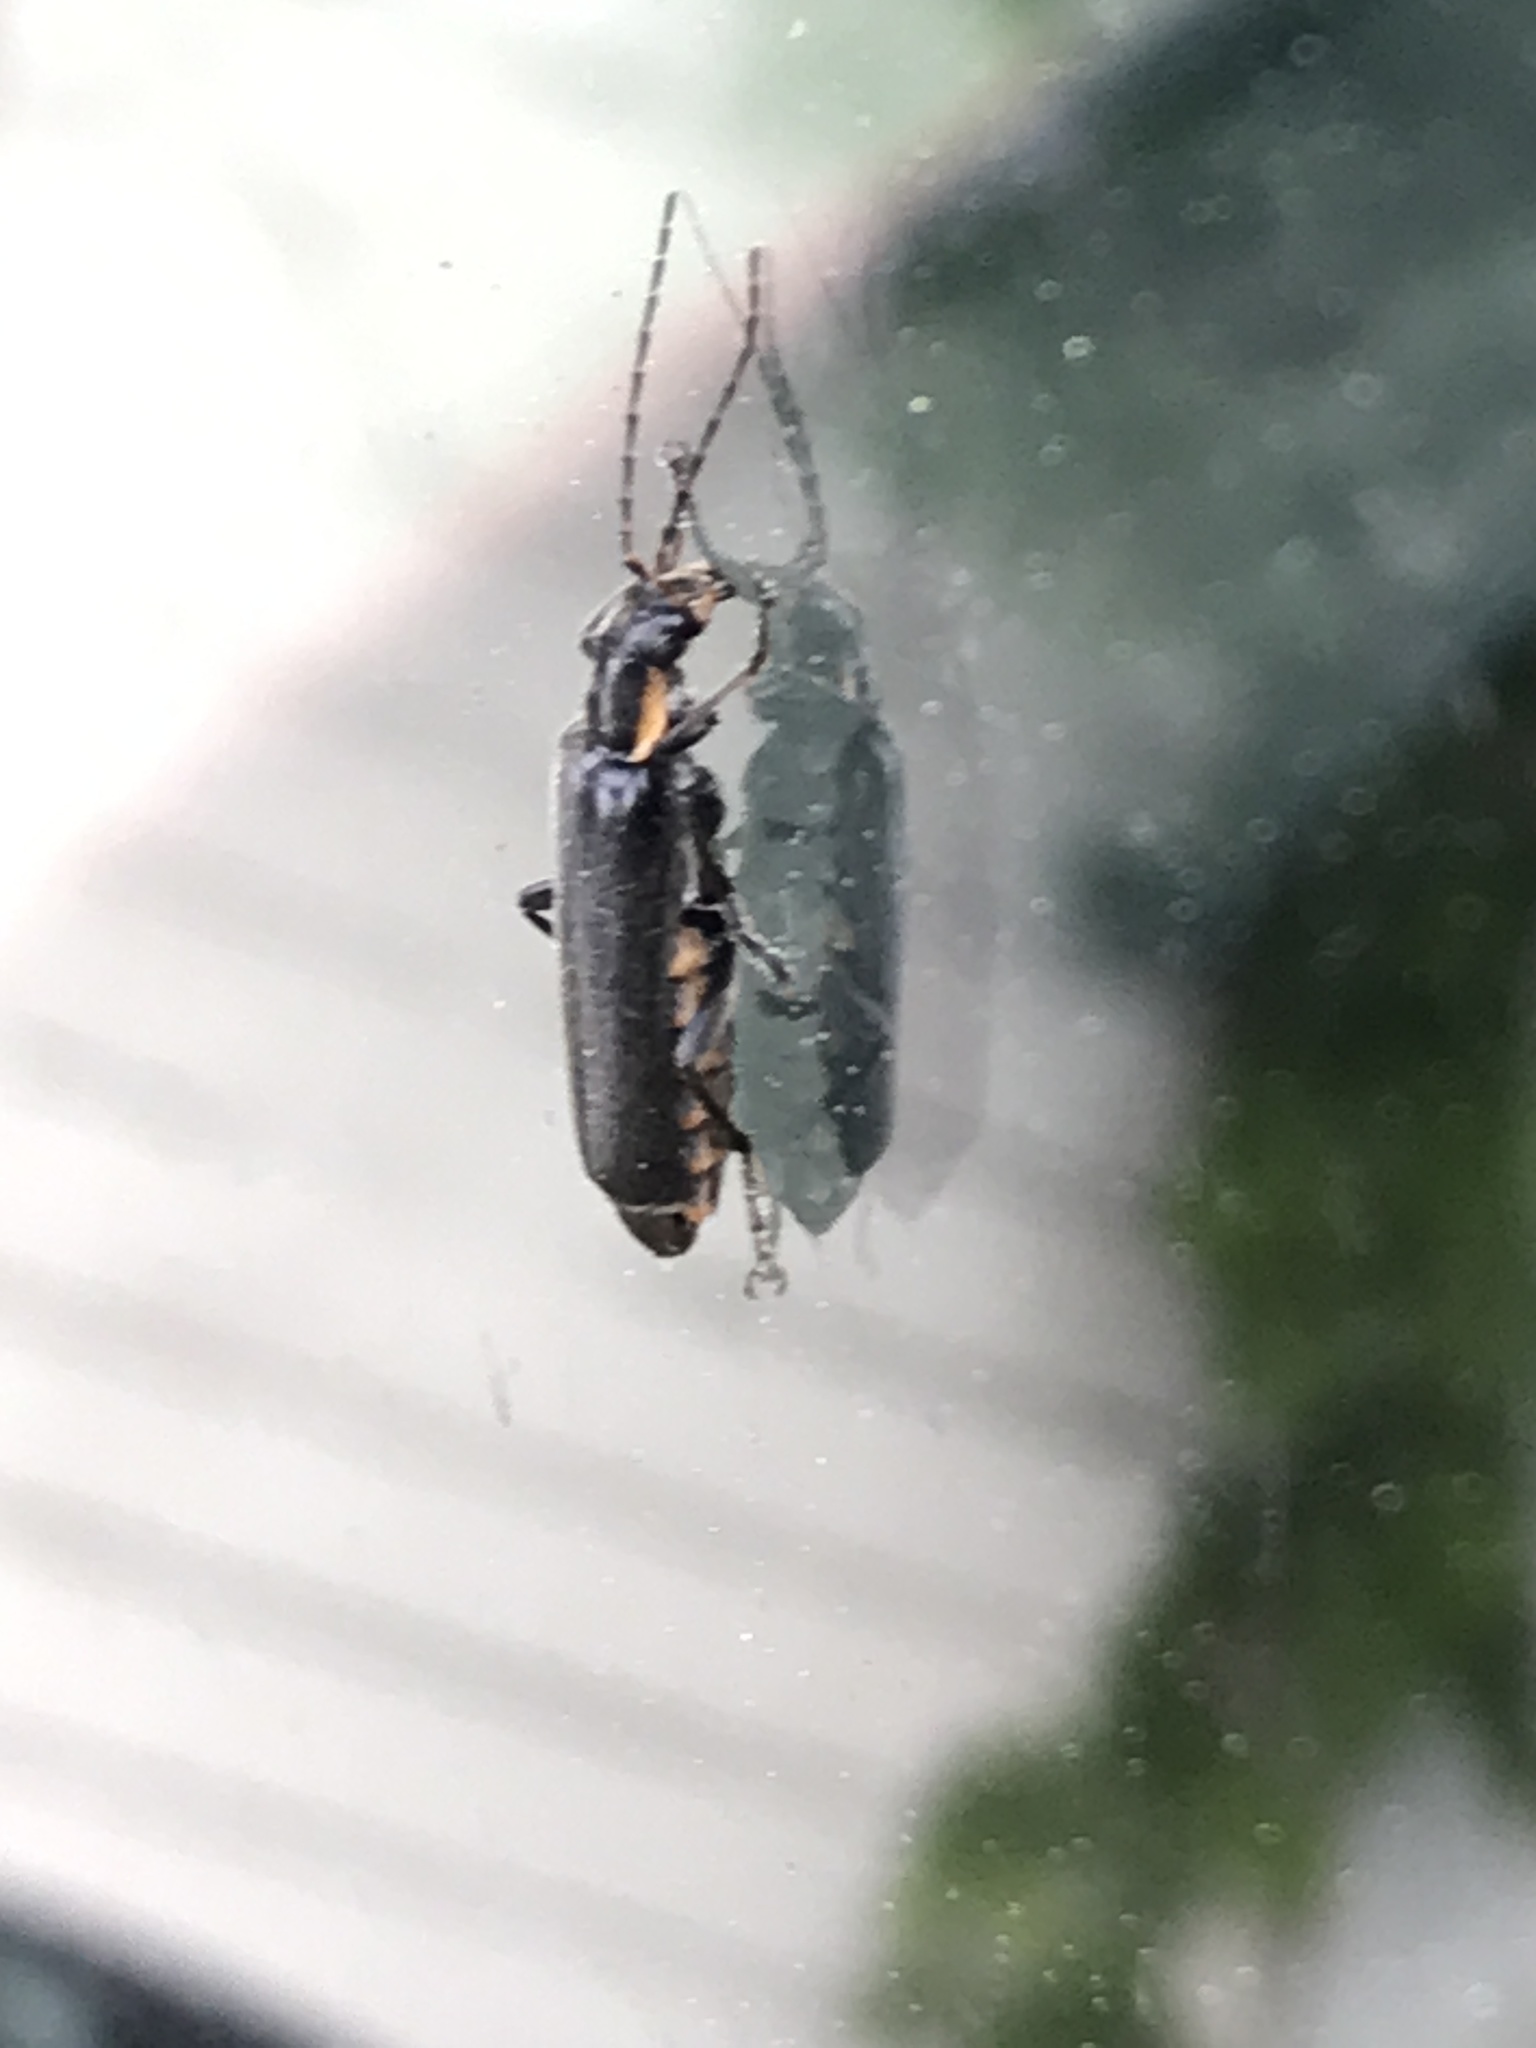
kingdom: Animalia
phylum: Arthropoda
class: Insecta
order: Coleoptera
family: Cantharidae
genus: Cantharis
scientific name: Cantharis obscura
